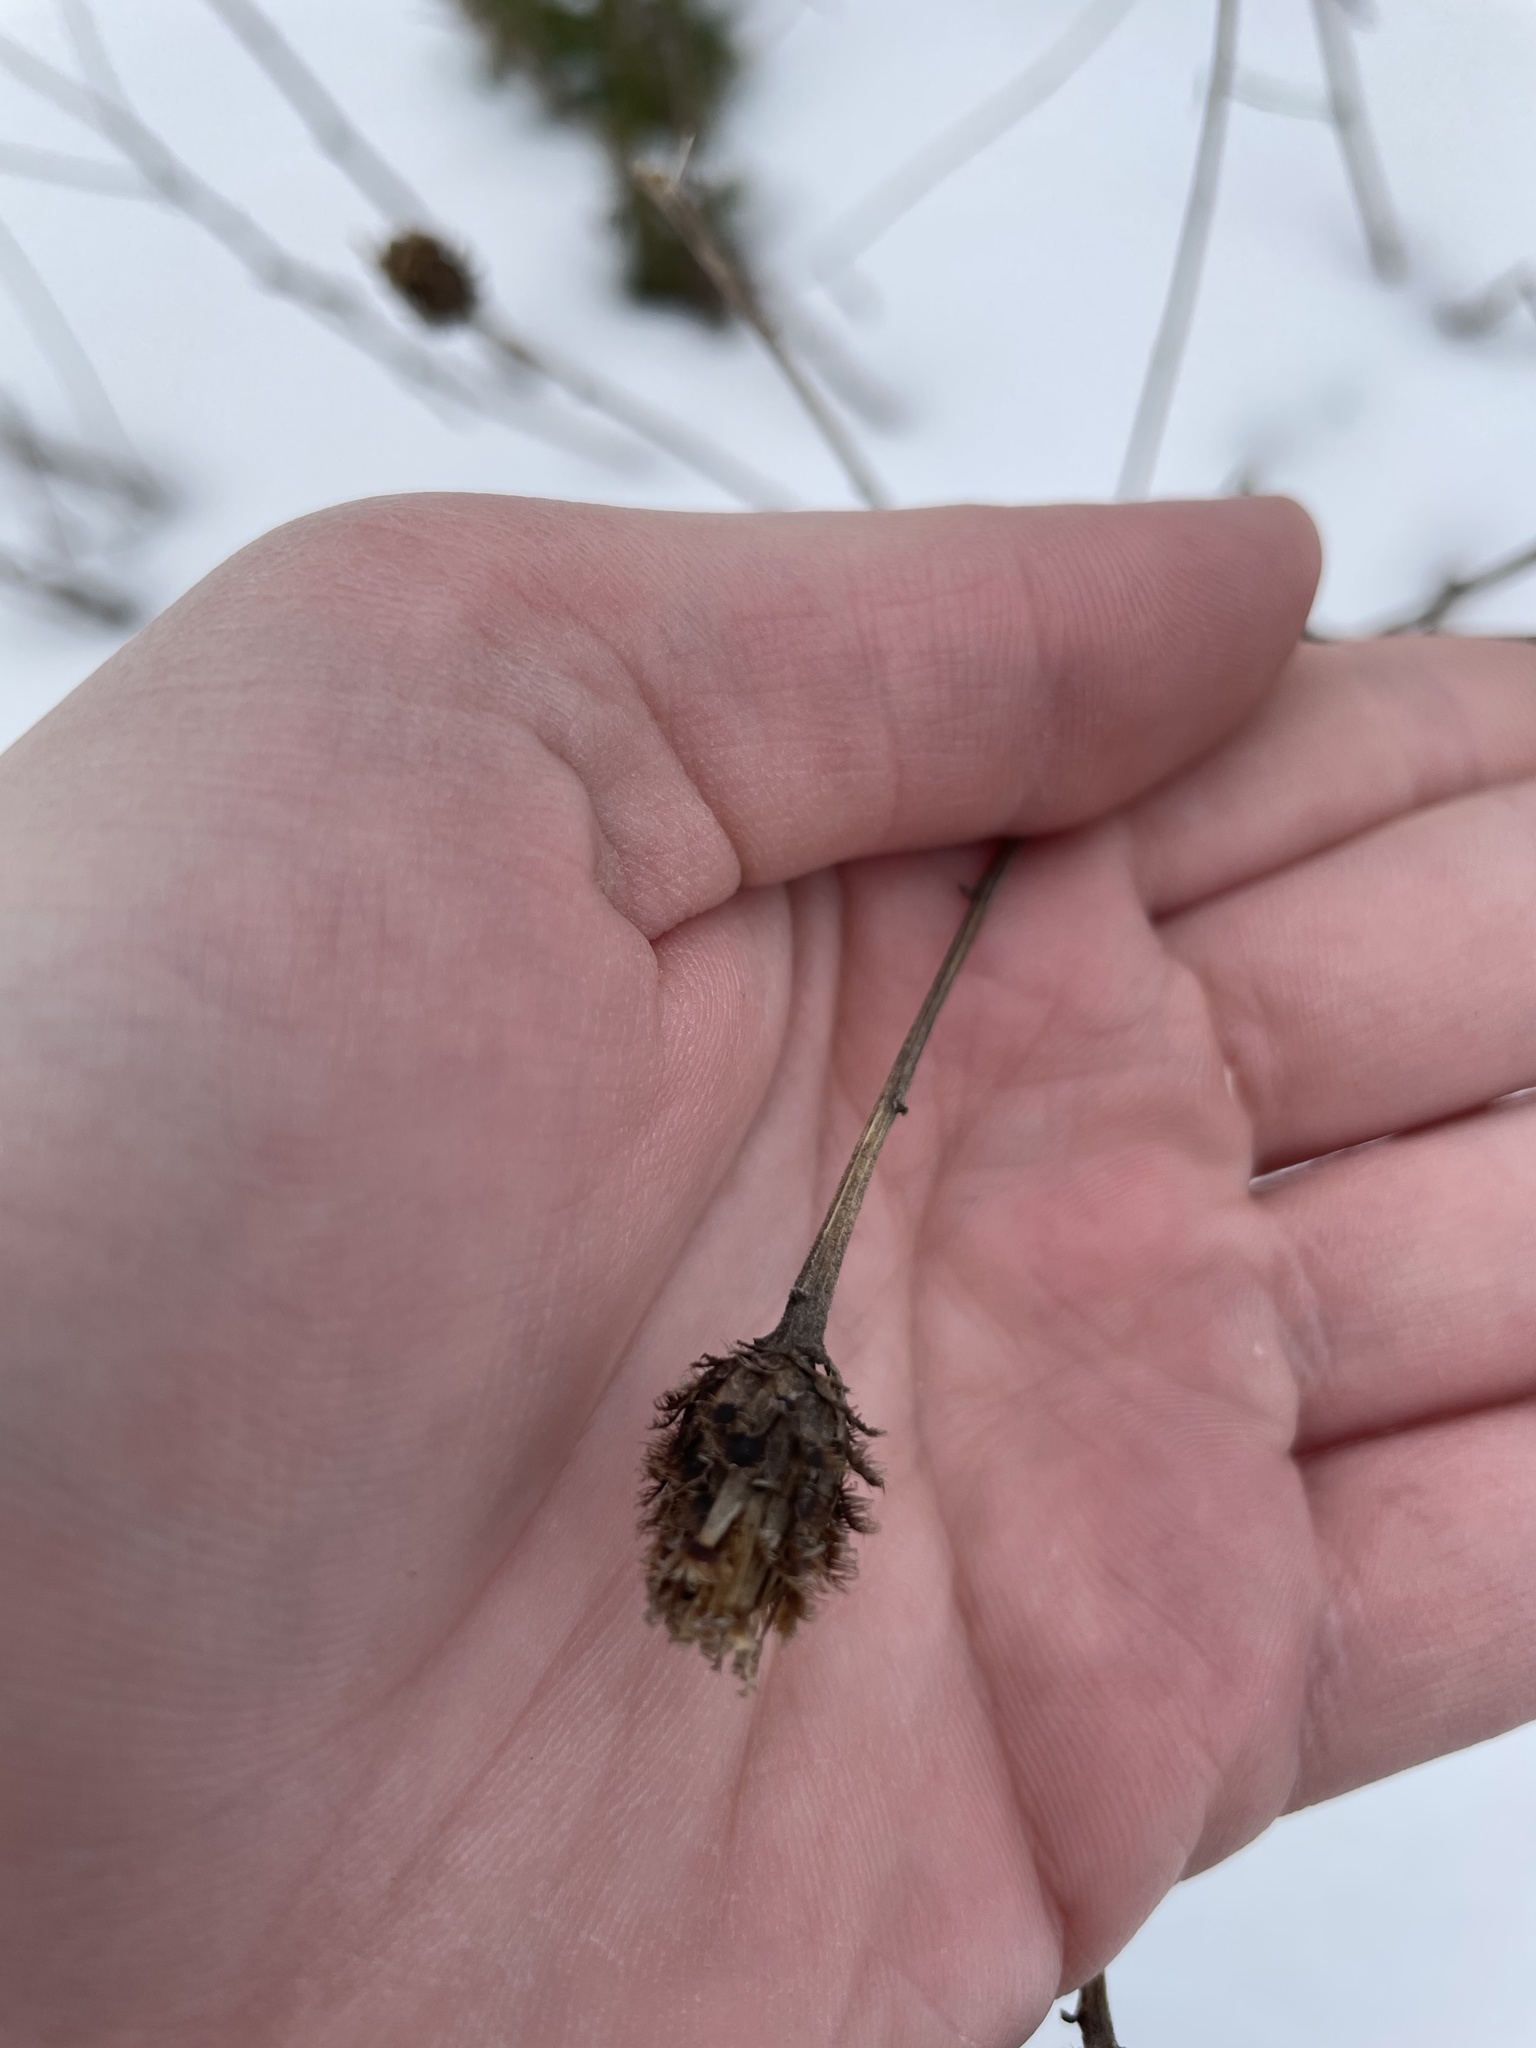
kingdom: Plantae
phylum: Tracheophyta
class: Magnoliopsida
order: Asterales
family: Asteraceae
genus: Centaurea
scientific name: Centaurea nigra
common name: Lesser knapweed
